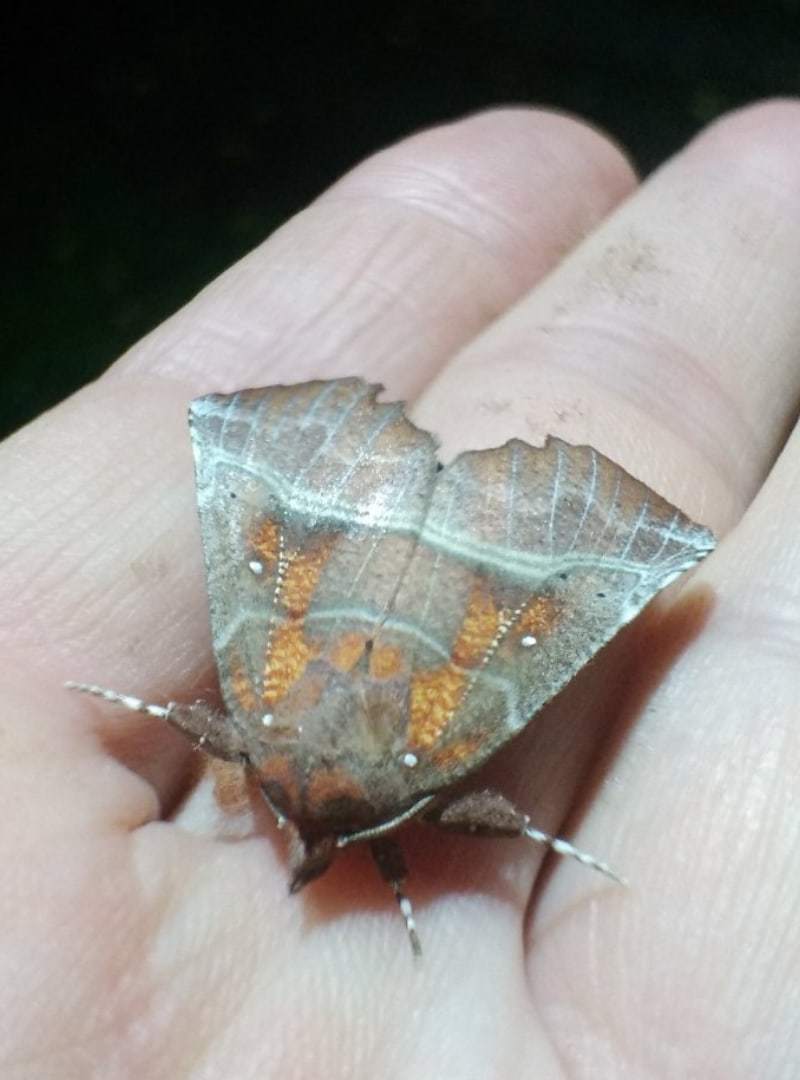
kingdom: Animalia
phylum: Arthropoda
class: Insecta
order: Lepidoptera
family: Erebidae
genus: Scoliopteryx
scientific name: Scoliopteryx libatrix
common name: Herald
